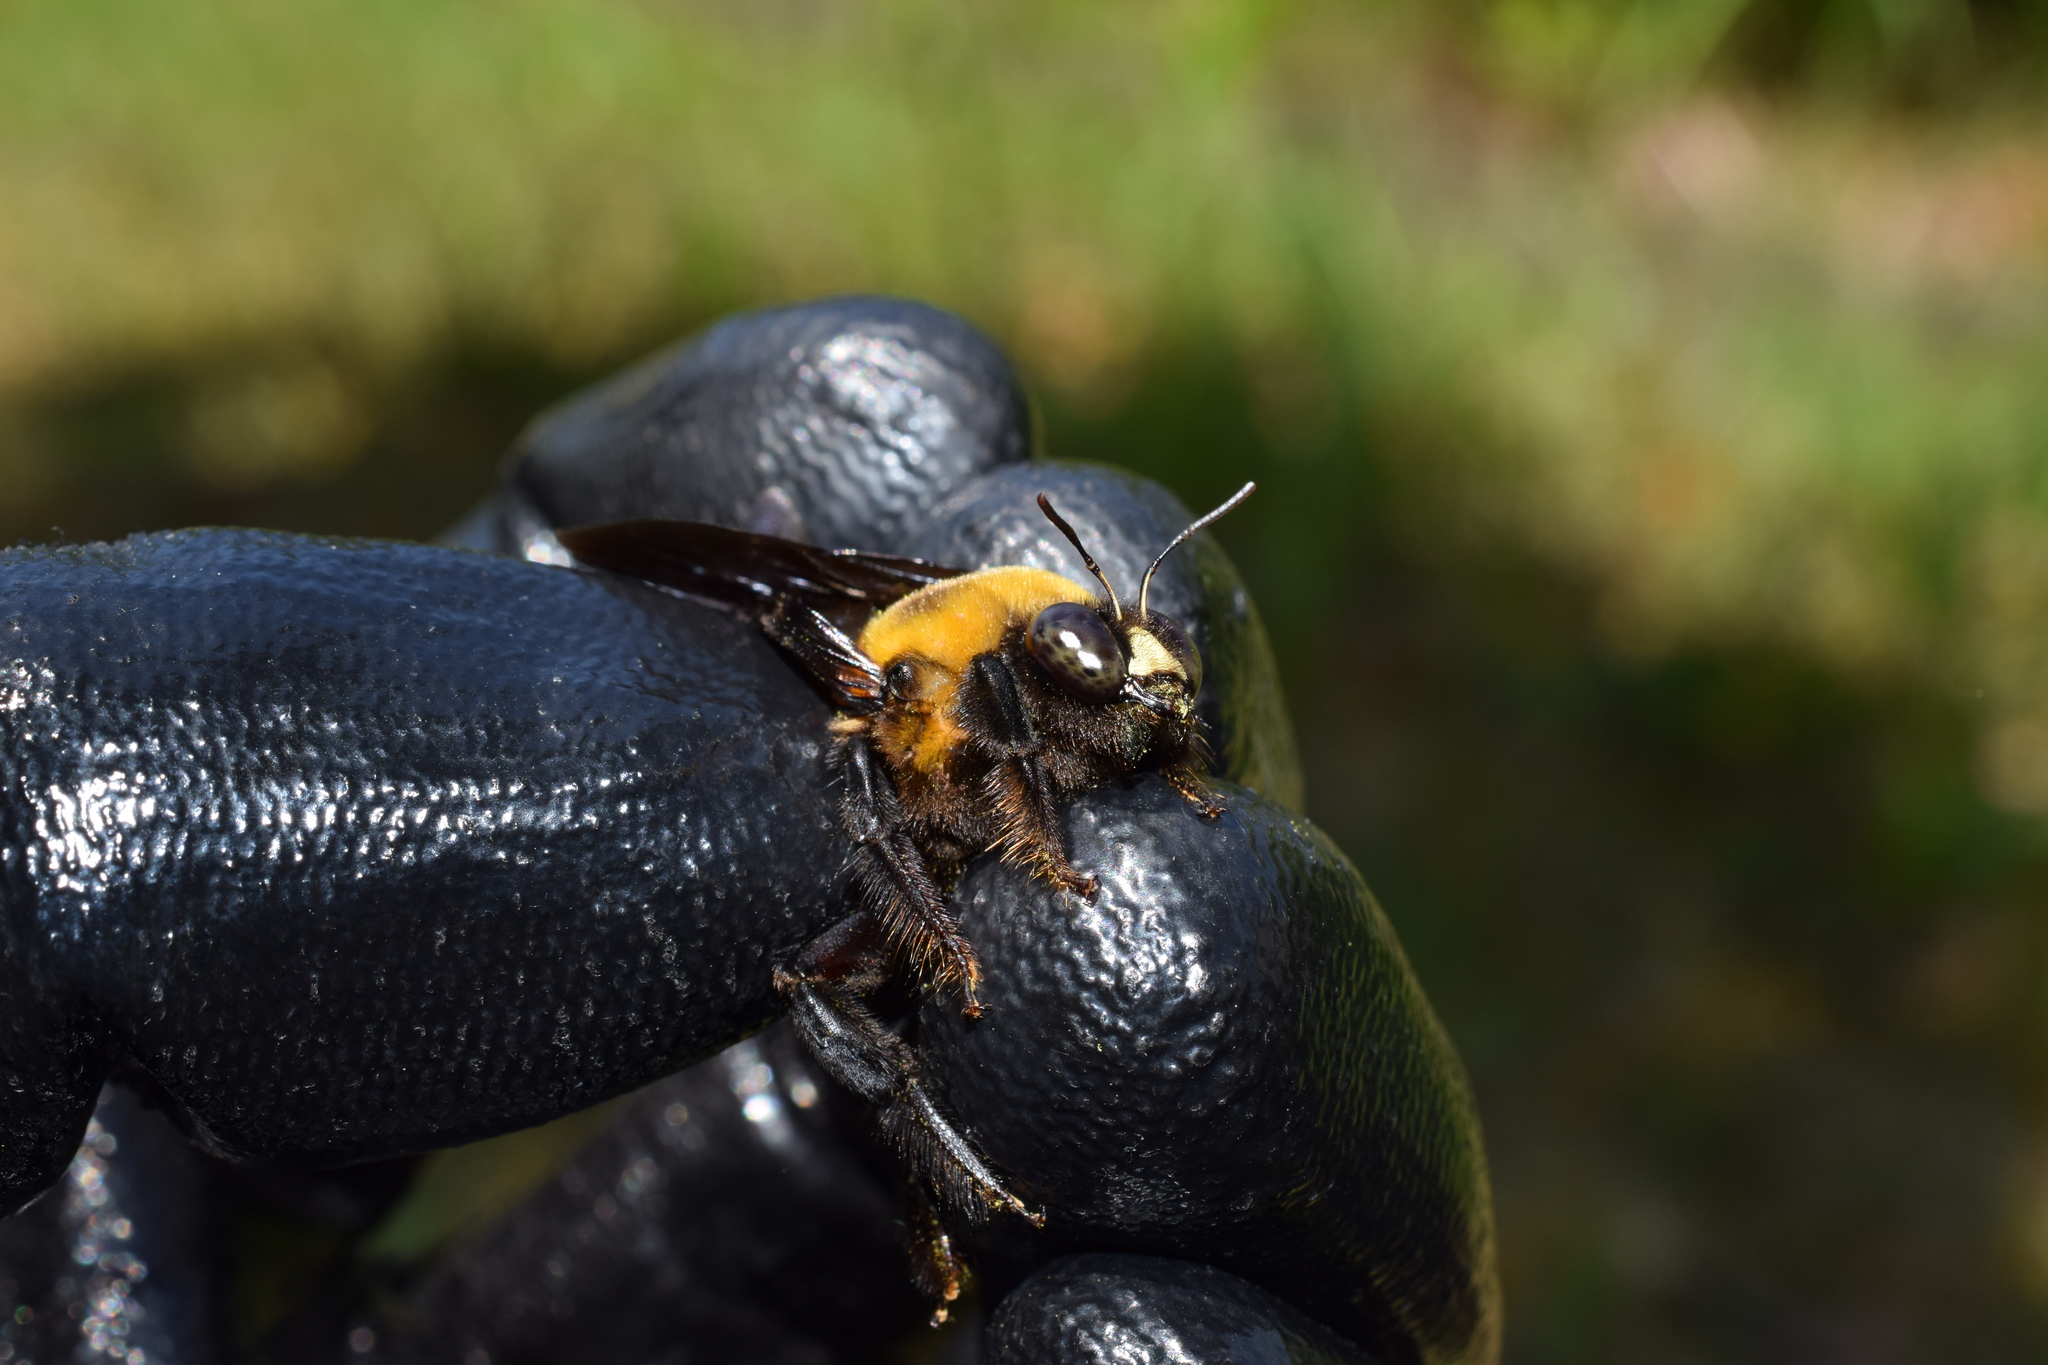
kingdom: Animalia
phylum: Arthropoda
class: Insecta
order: Hymenoptera
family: Apidae
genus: Xylocopa
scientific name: Xylocopa appendiculata
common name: Japanese carpenter bee
